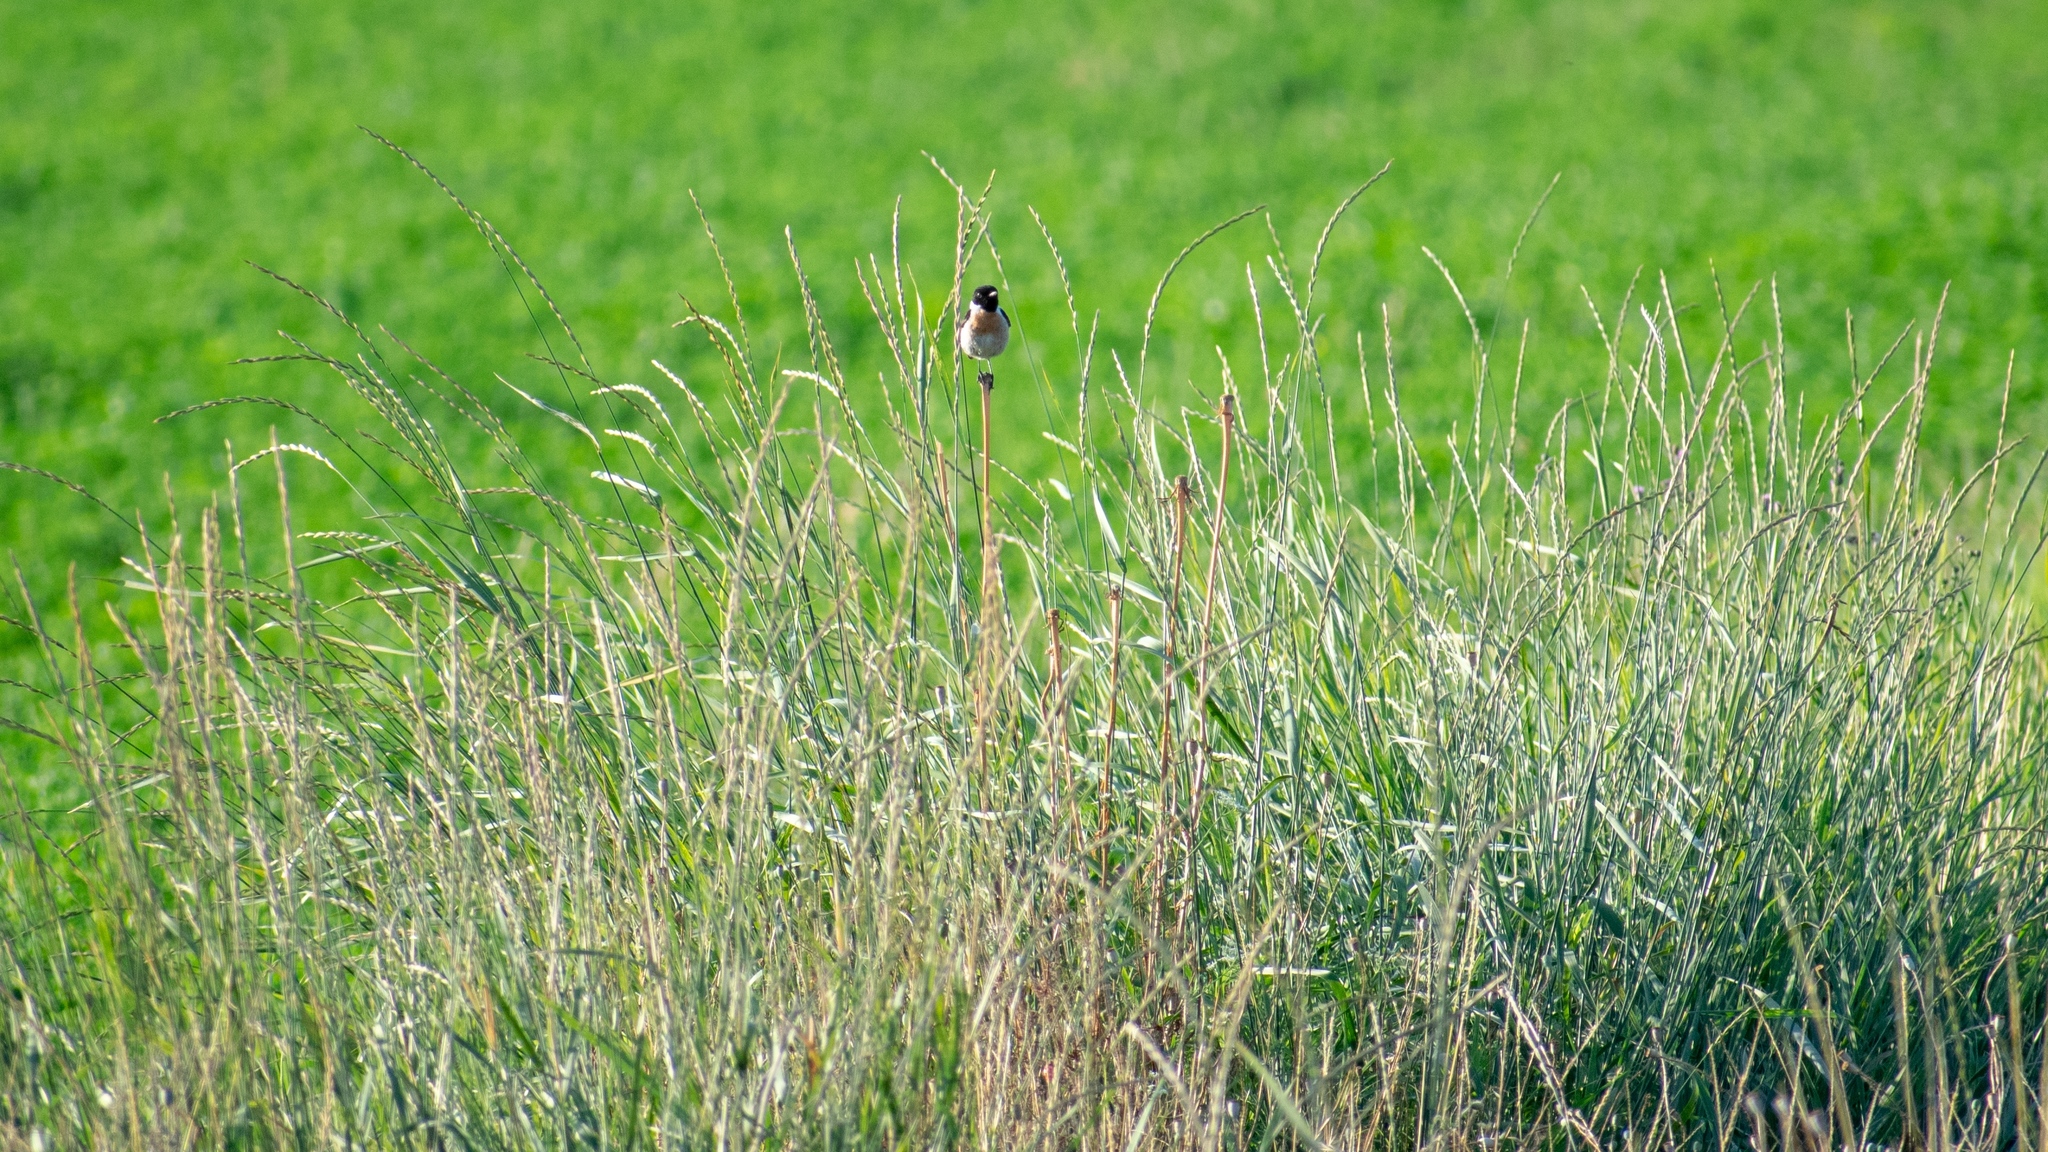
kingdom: Animalia
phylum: Chordata
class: Aves
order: Passeriformes
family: Muscicapidae
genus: Saxicola
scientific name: Saxicola rubicola
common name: European stonechat
